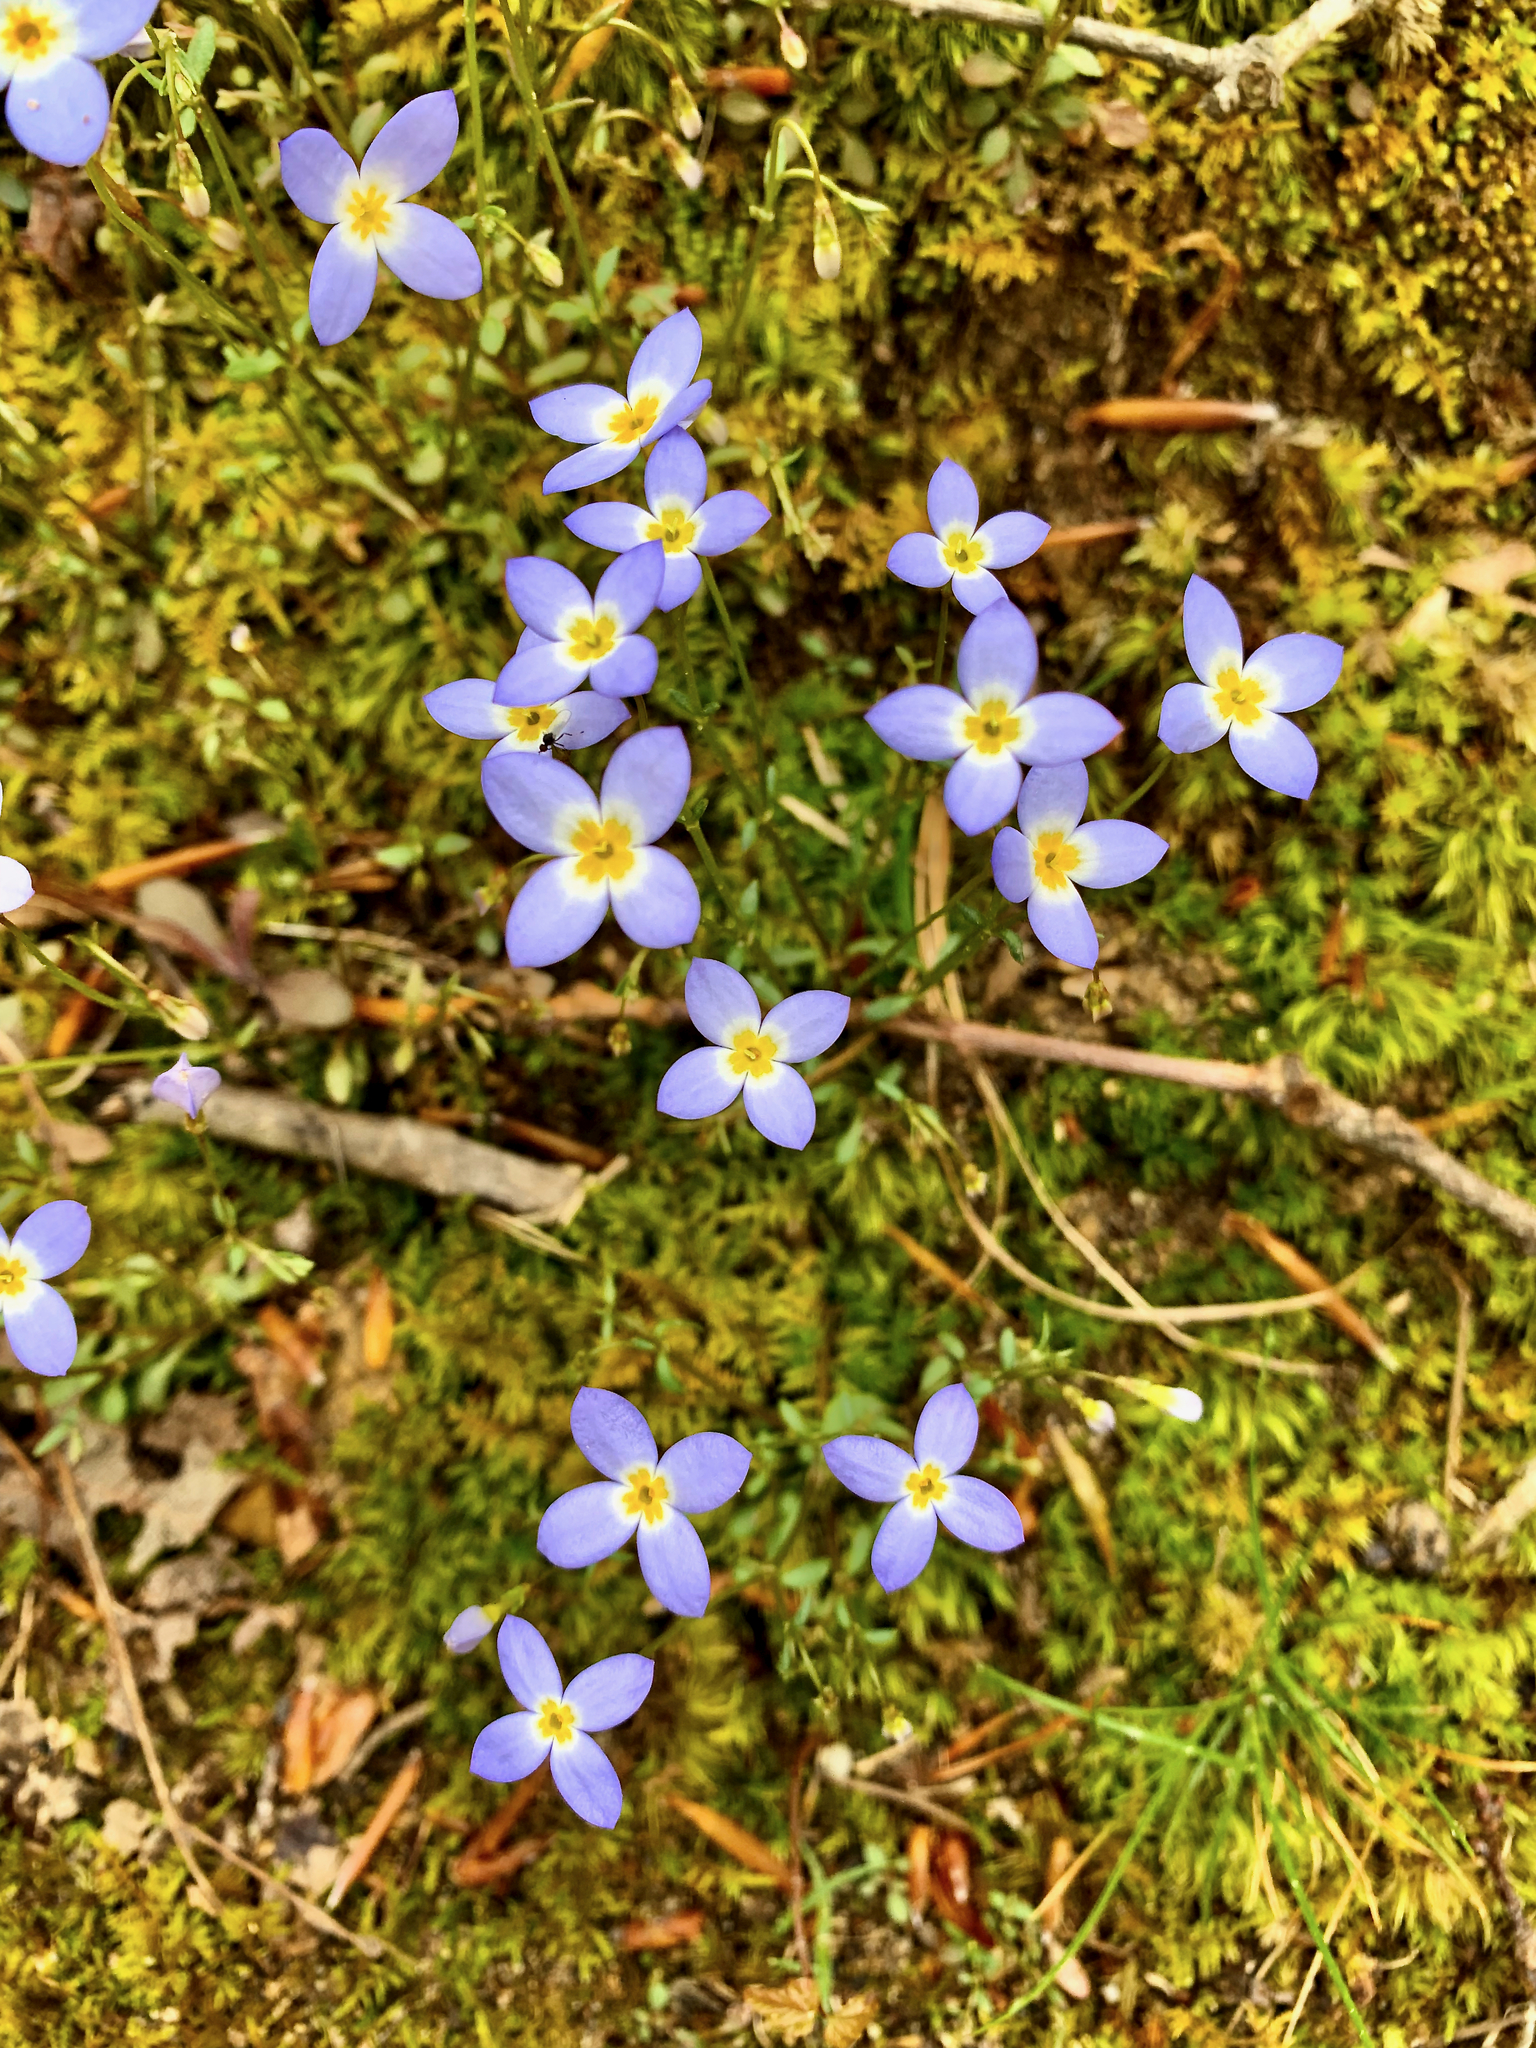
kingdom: Plantae
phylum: Tracheophyta
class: Magnoliopsida
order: Gentianales
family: Rubiaceae
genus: Houstonia
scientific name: Houstonia caerulea
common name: Bluets
